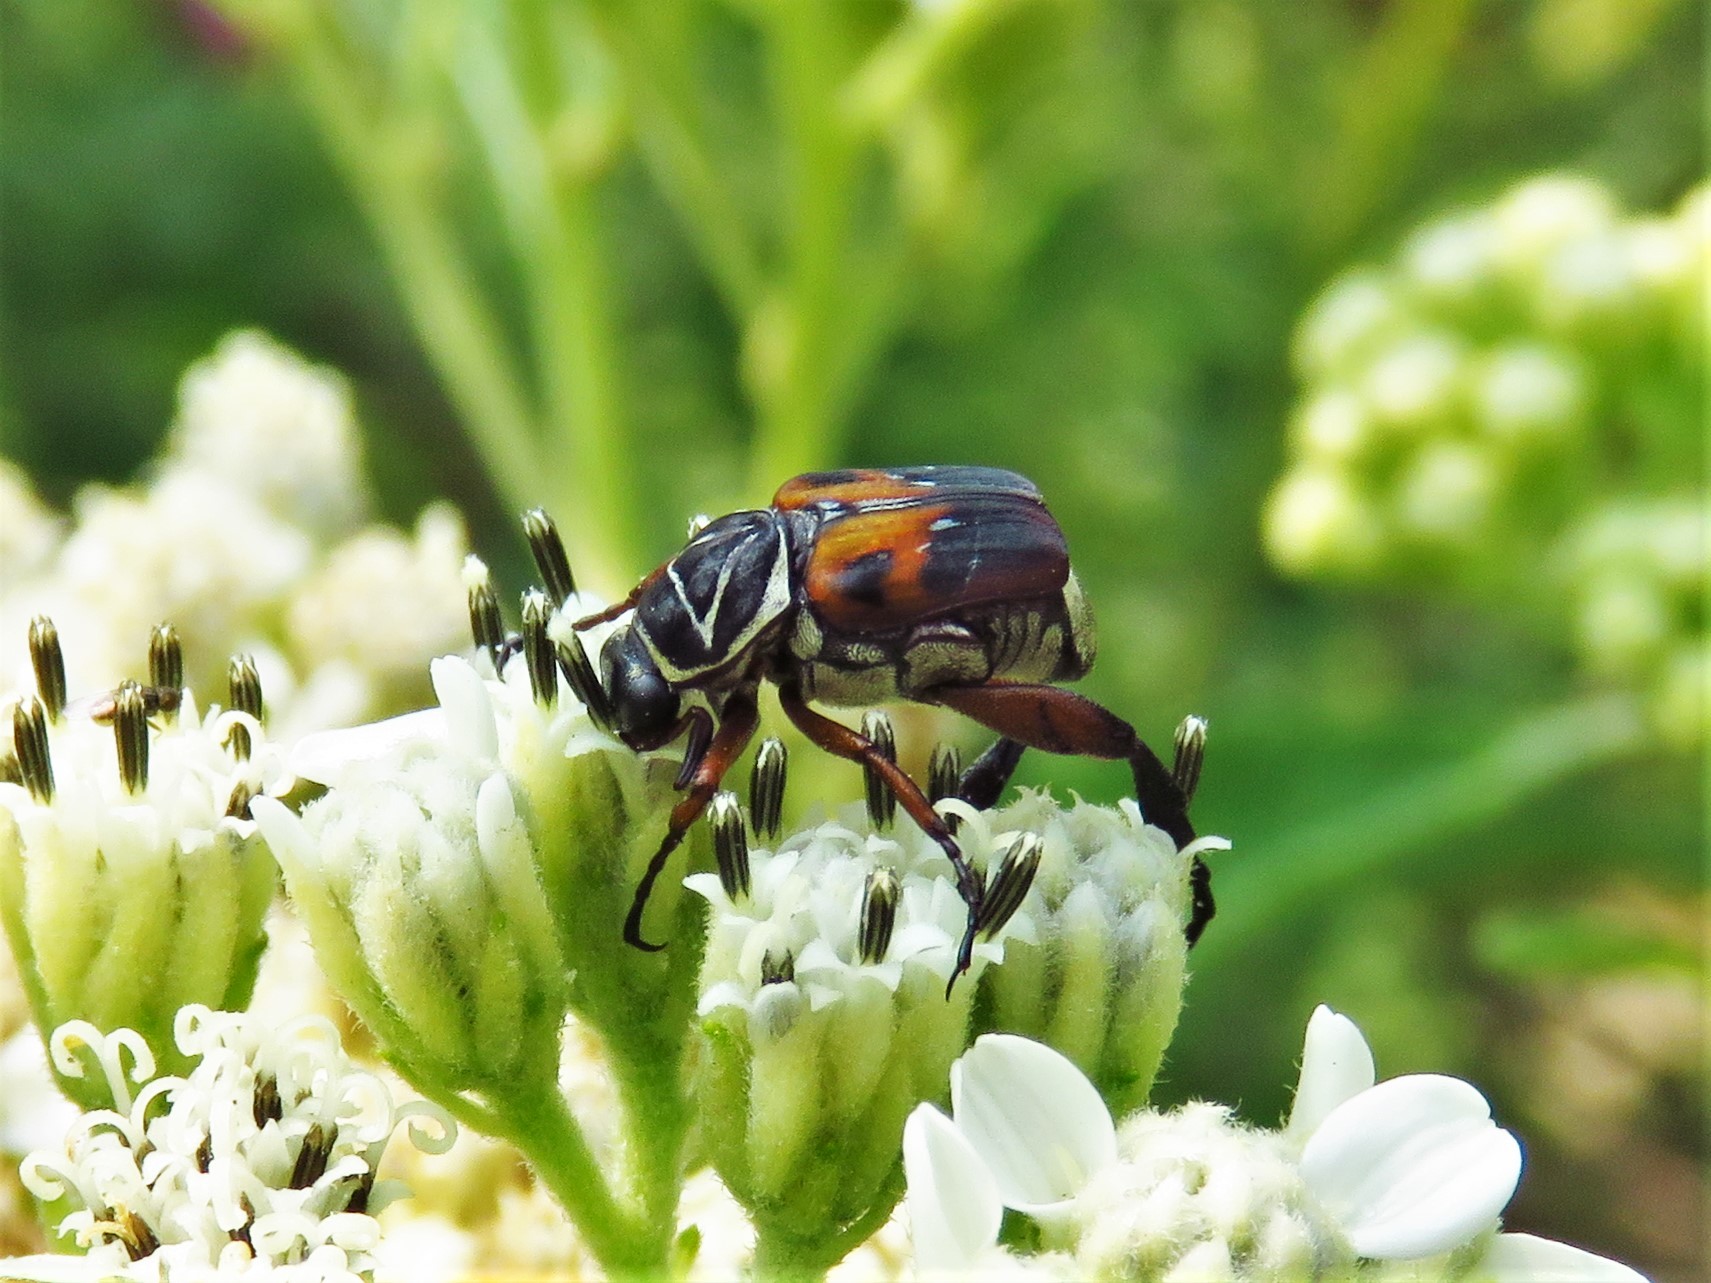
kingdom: Animalia
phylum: Arthropoda
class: Insecta
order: Coleoptera
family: Scarabaeidae
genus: Trigonopeltastes
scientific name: Trigonopeltastes delta
